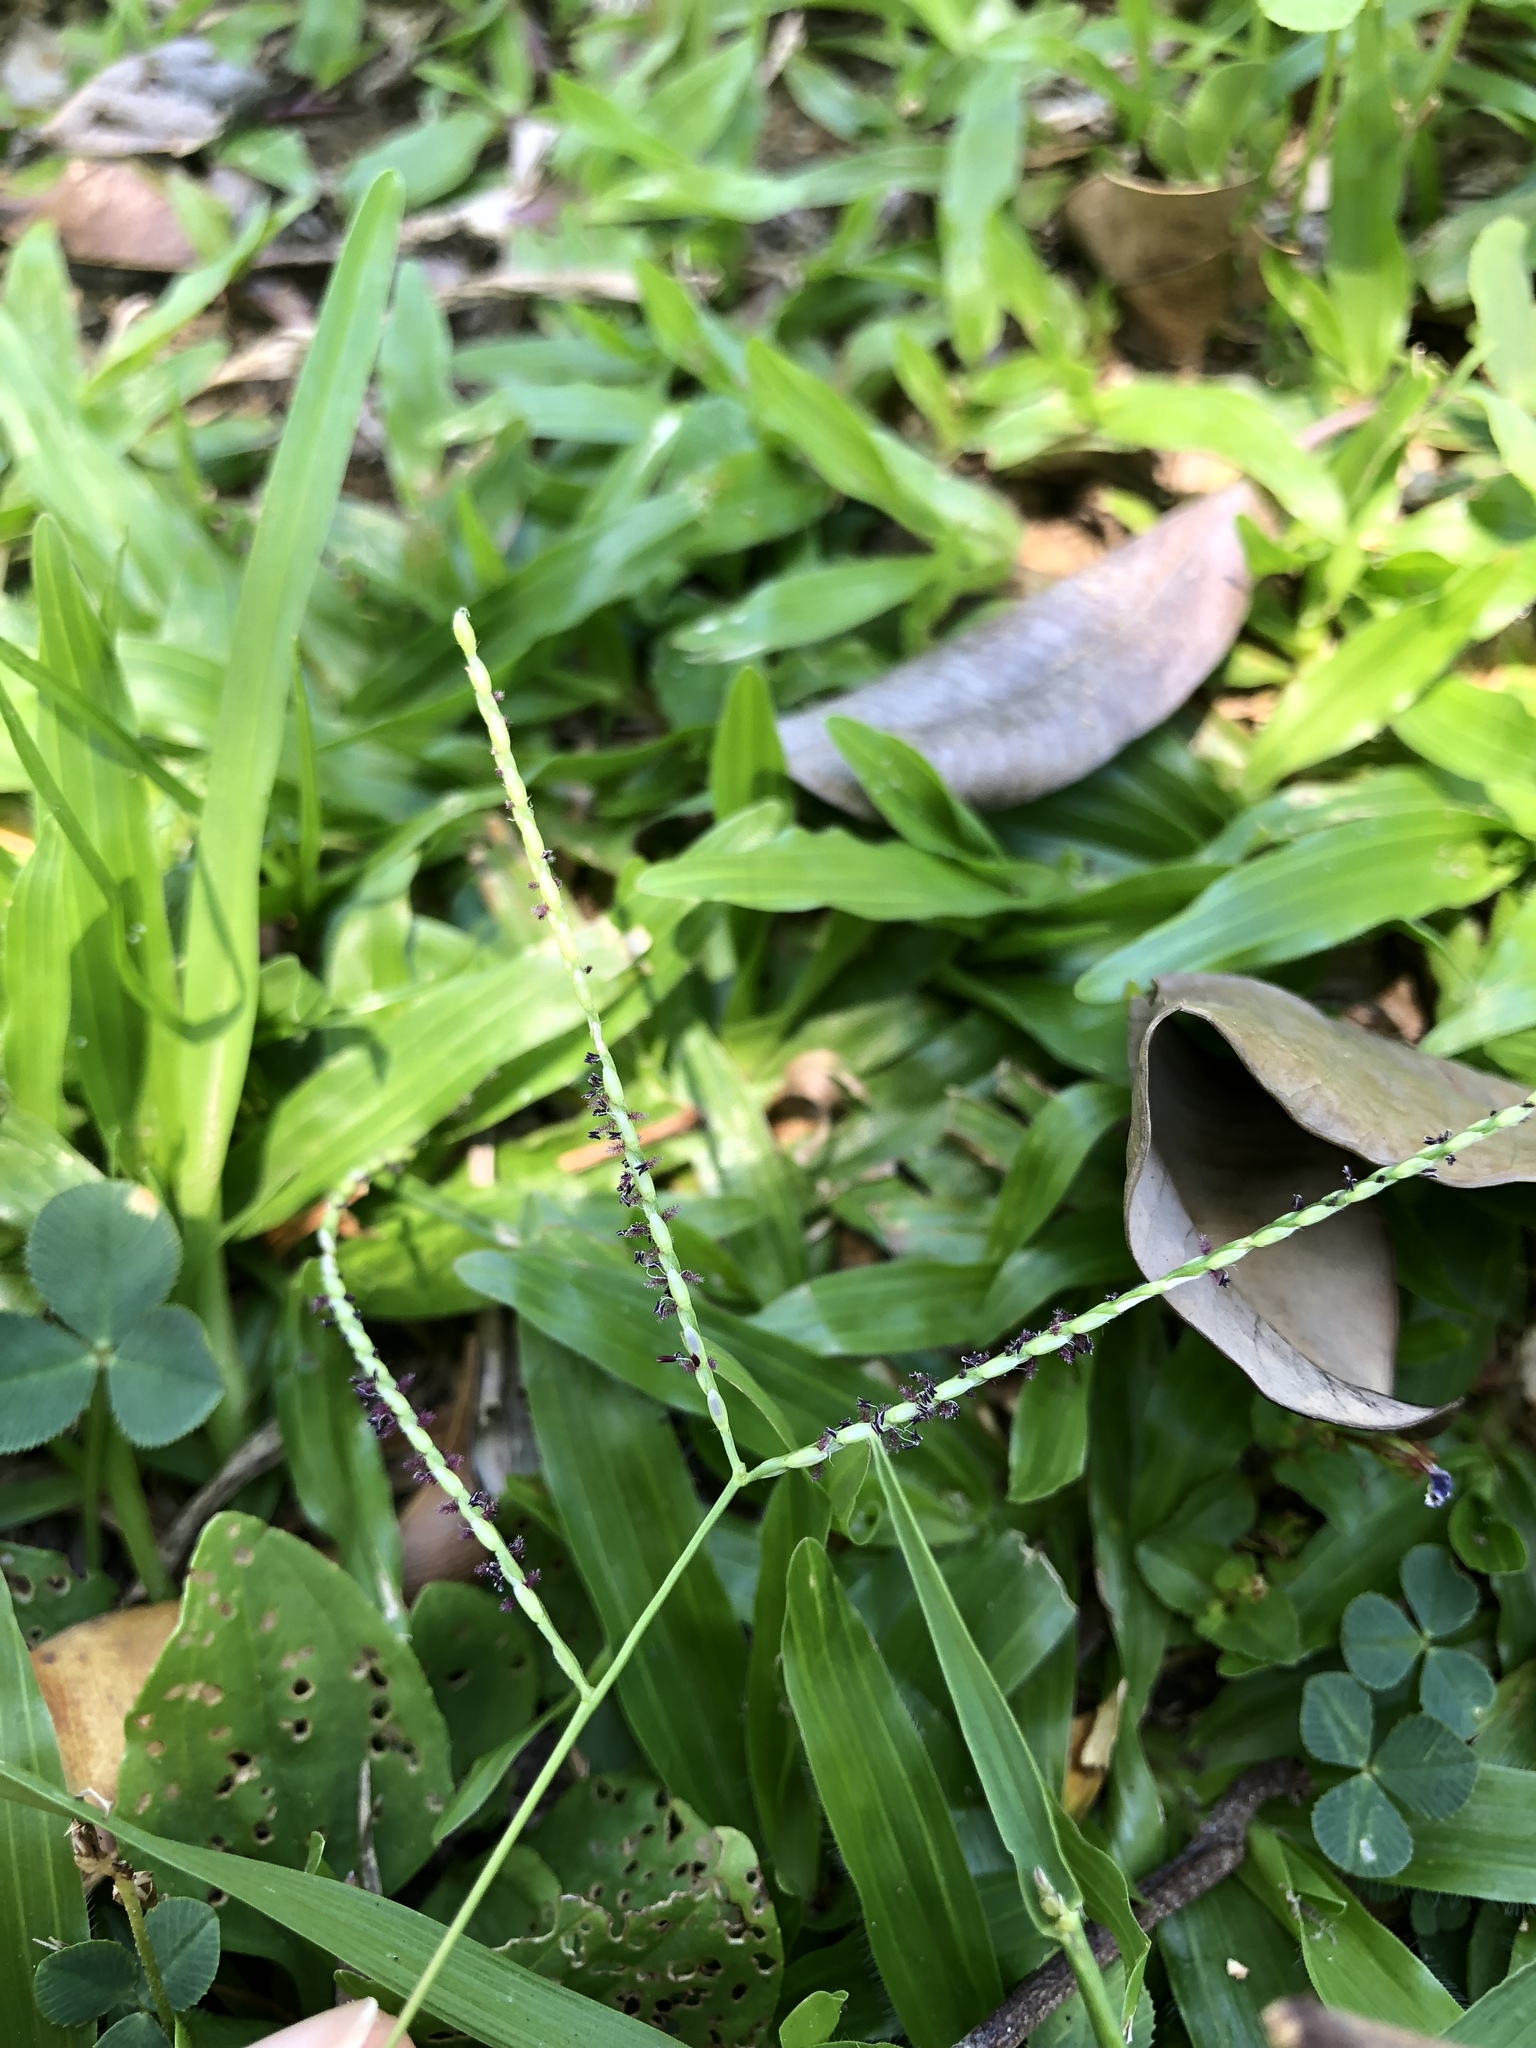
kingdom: Plantae
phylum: Tracheophyta
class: Liliopsida
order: Poales
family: Poaceae
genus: Digitaria
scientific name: Digitaria violascens
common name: Violet crabgrass
